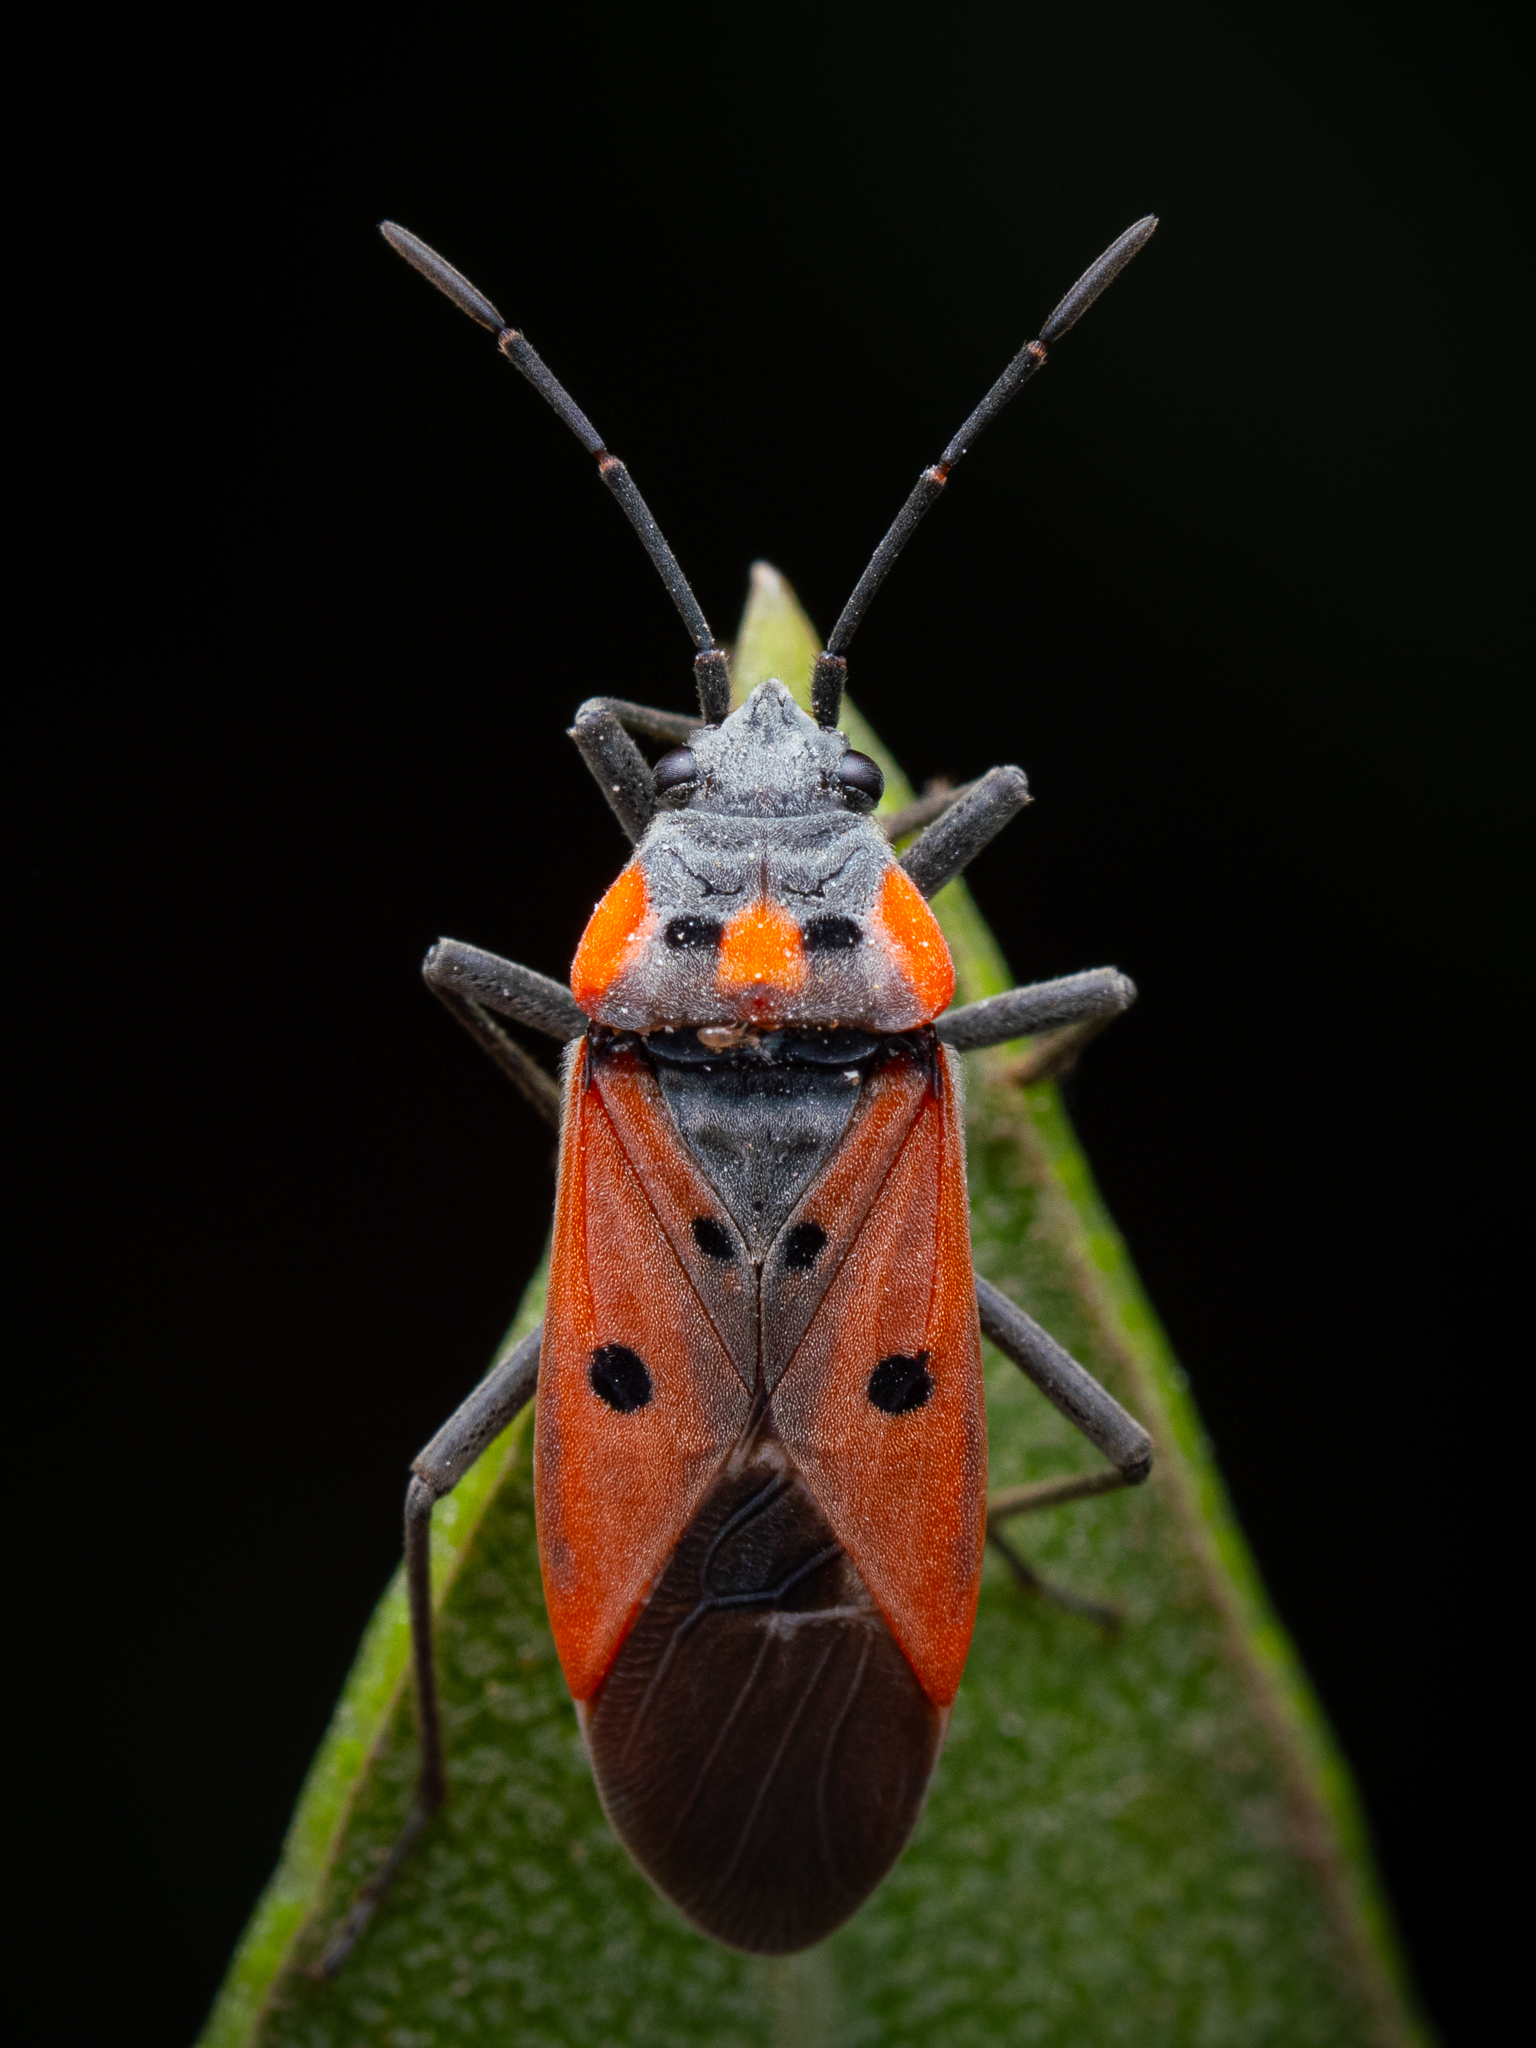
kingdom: Animalia
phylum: Arthropoda
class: Insecta
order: Hemiptera
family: Lygaeidae
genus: Lygaeus
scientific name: Lygaeus creticus
